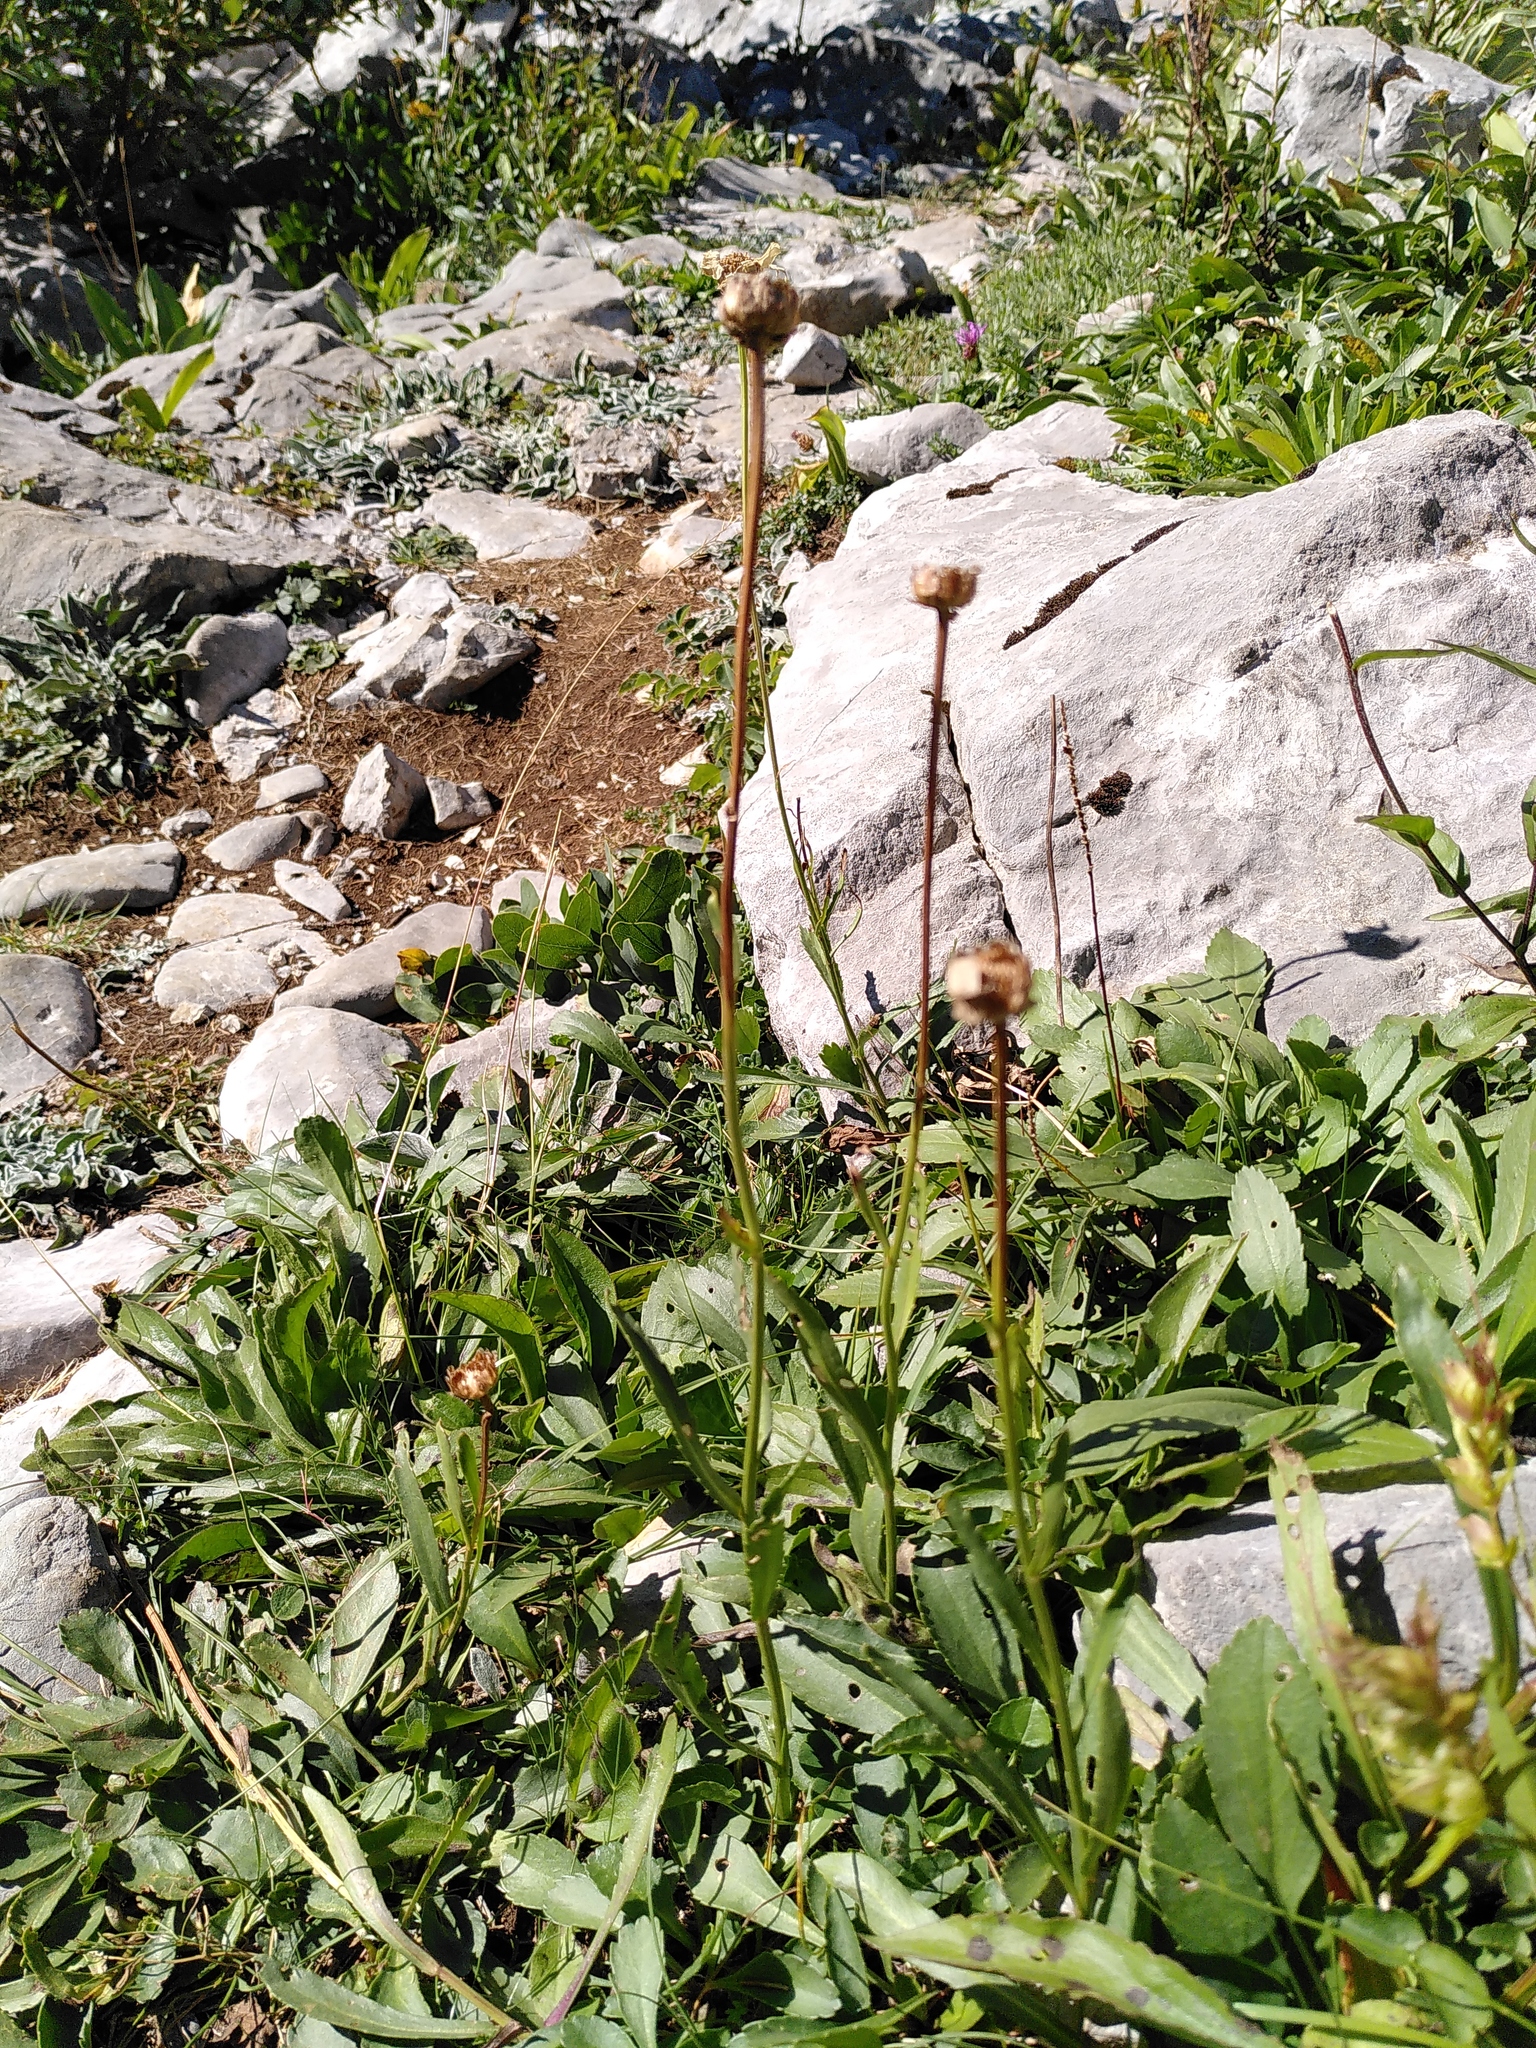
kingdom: Plantae
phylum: Tracheophyta
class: Magnoliopsida
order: Asterales
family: Asteraceae
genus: Leucanthemum
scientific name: Leucanthemum adustum
